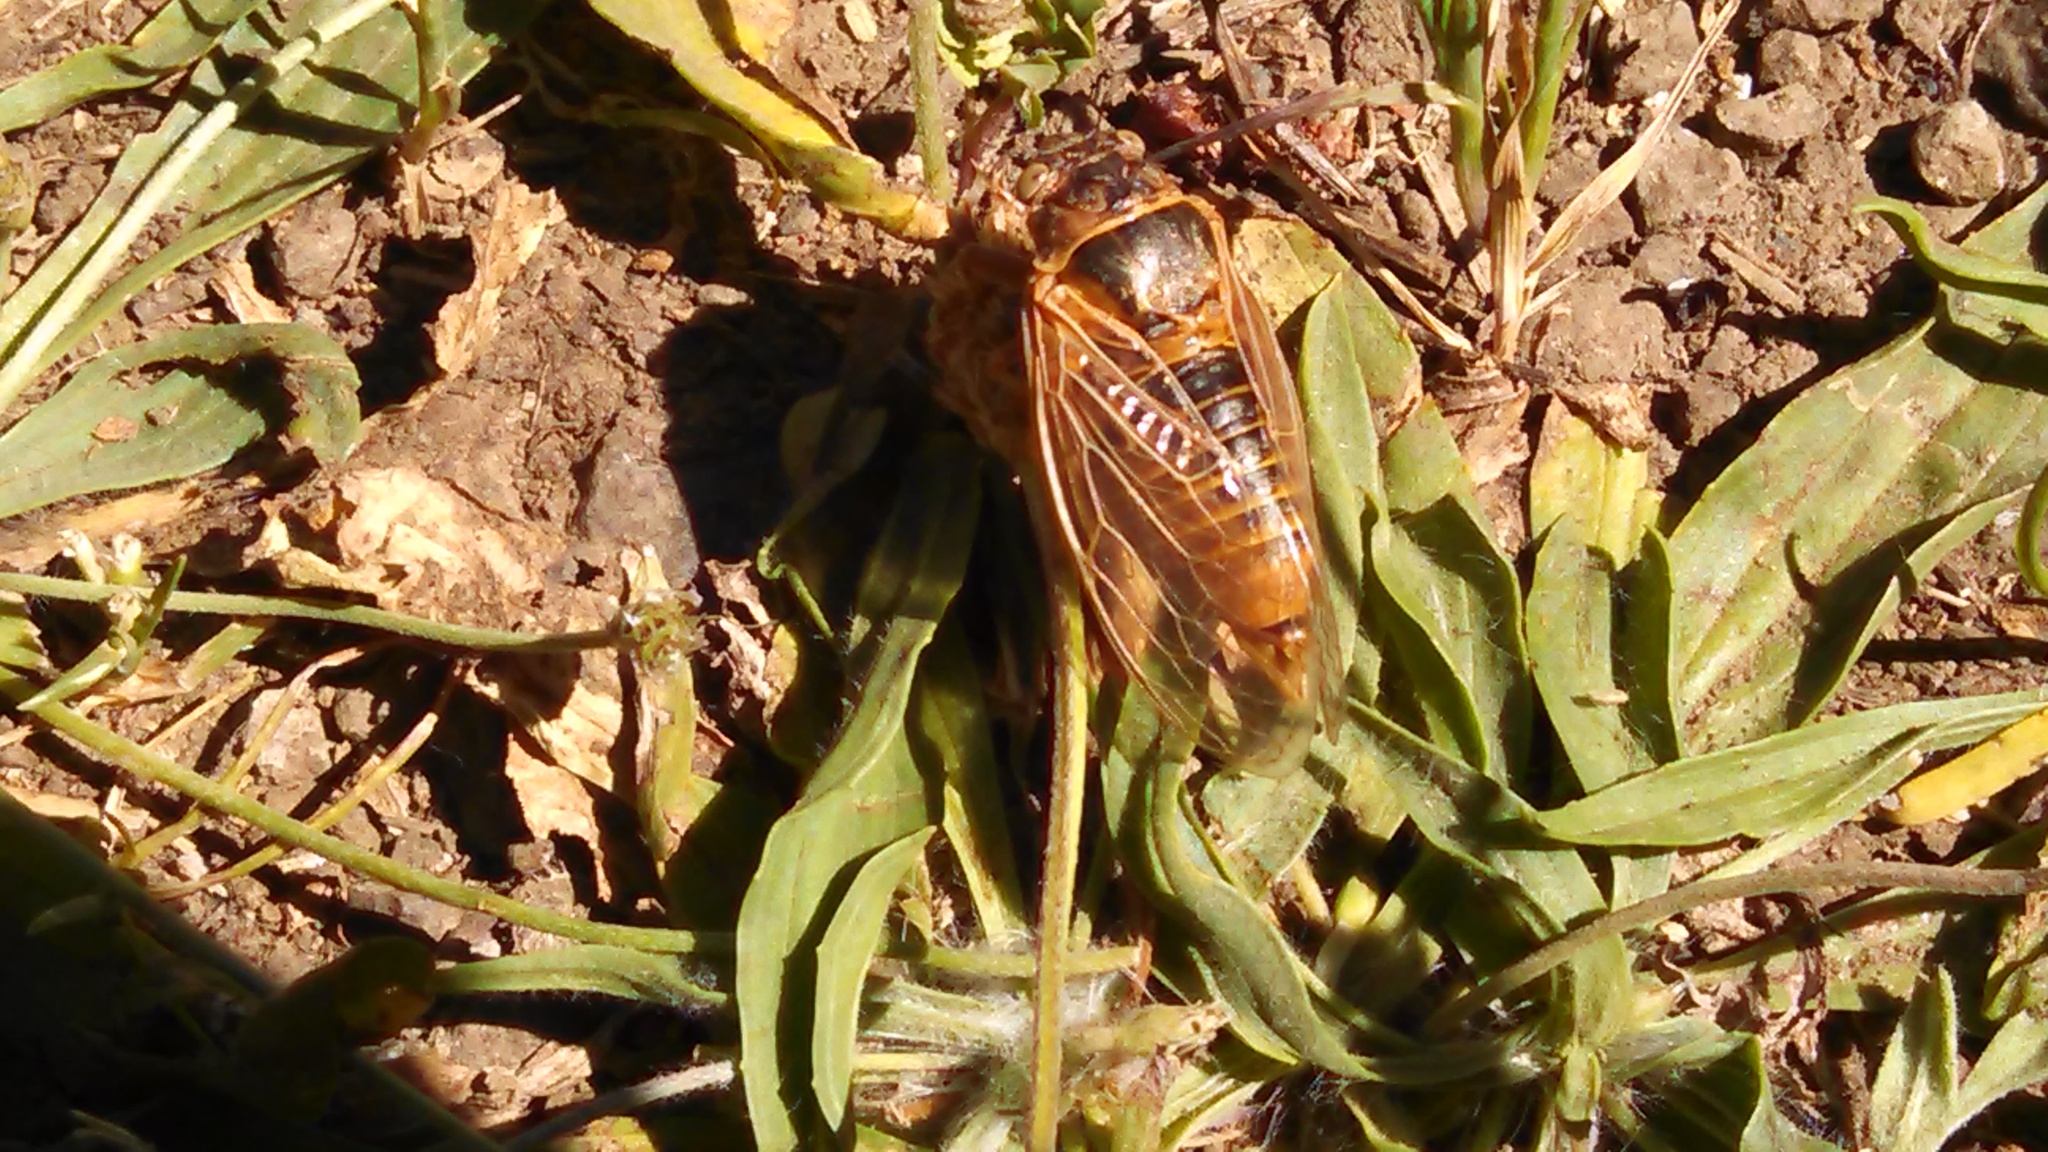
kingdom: Animalia
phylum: Arthropoda
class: Insecta
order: Hemiptera
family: Cicadidae
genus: Okanagana
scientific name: Okanagana triangulata
